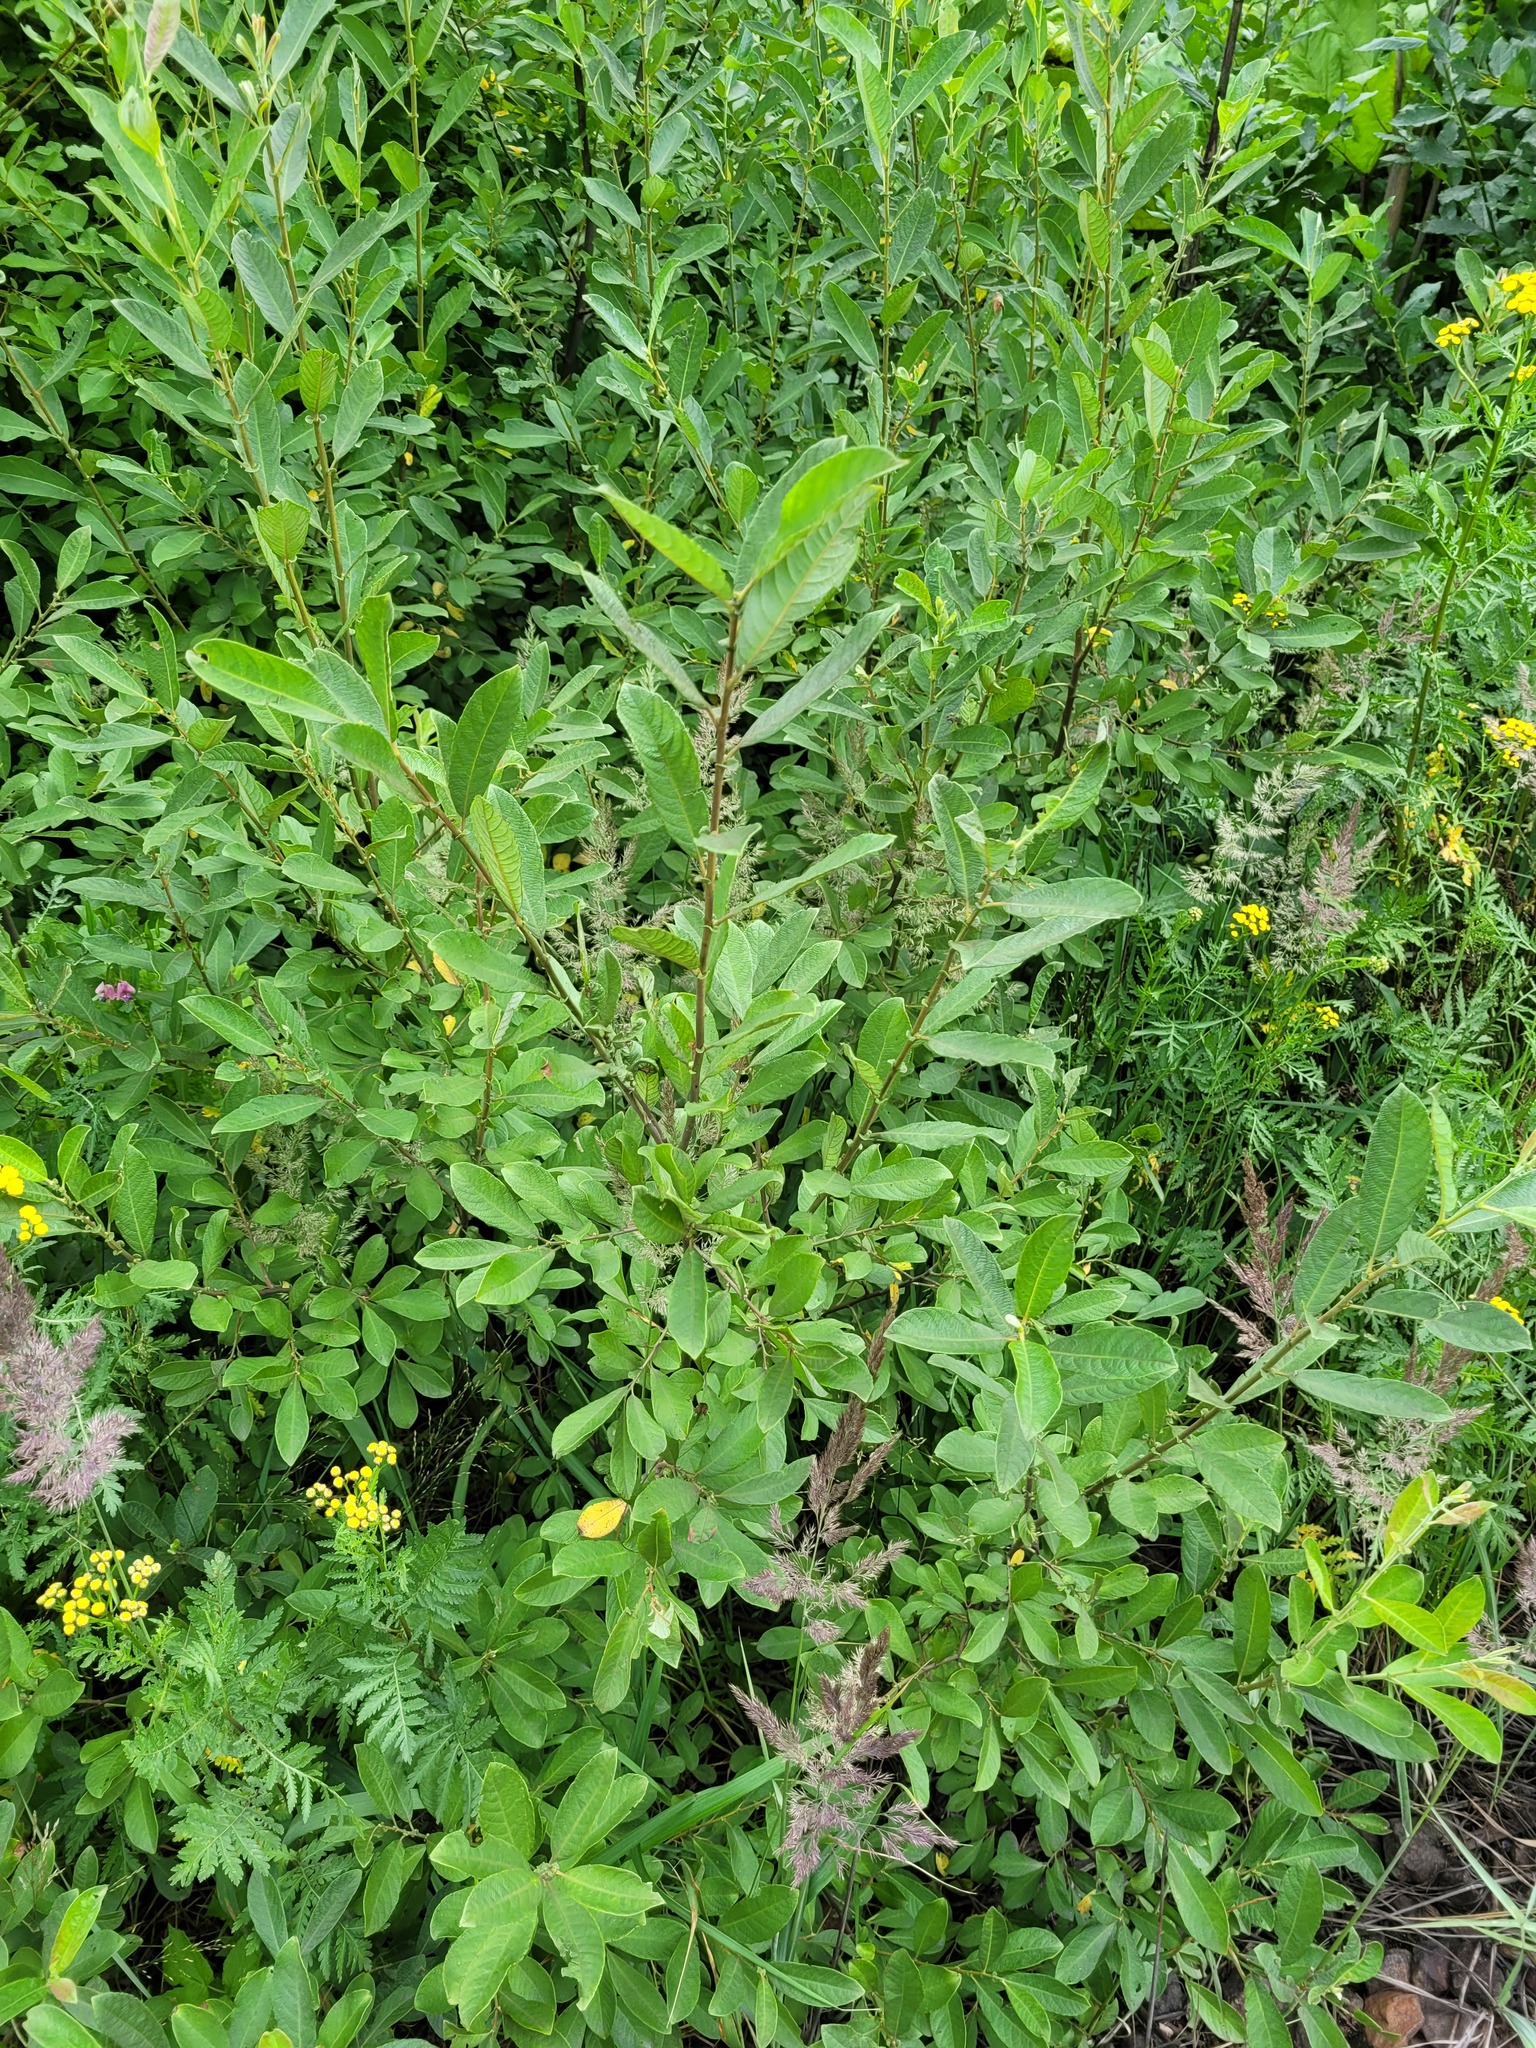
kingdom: Plantae
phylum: Tracheophyta
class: Magnoliopsida
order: Malpighiales
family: Salicaceae
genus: Salix
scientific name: Salix aurita
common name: Eared willow
